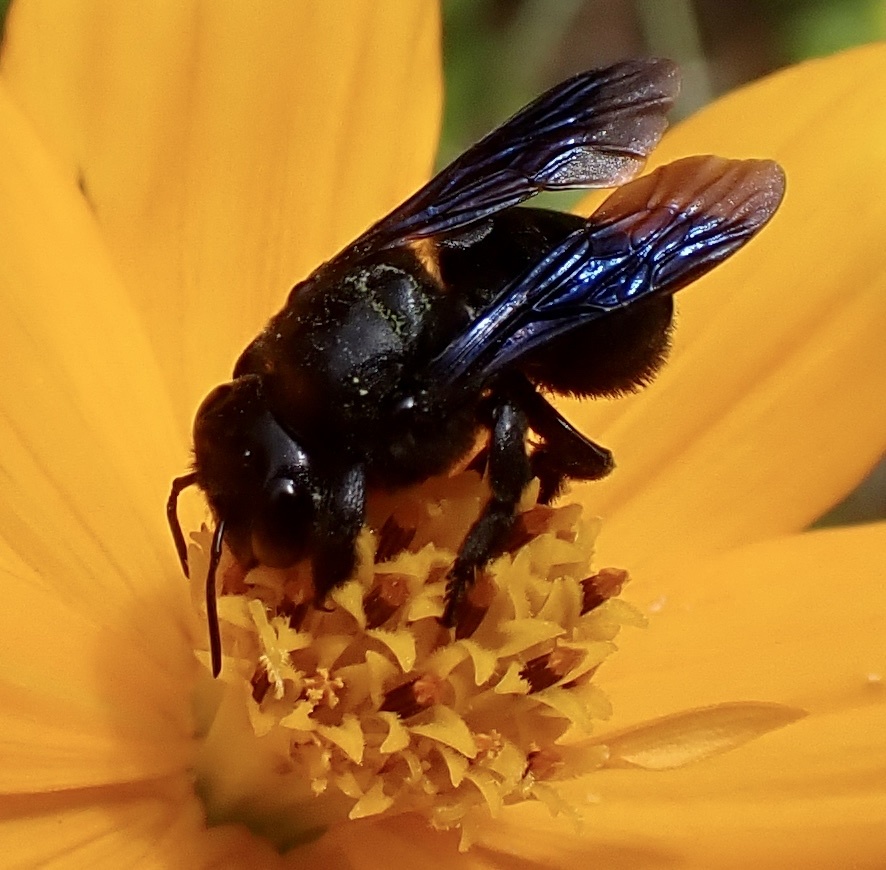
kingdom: Animalia
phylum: Arthropoda
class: Insecta
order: Hymenoptera
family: Megachilidae
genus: Megachile
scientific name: Megachile xylocopoides
